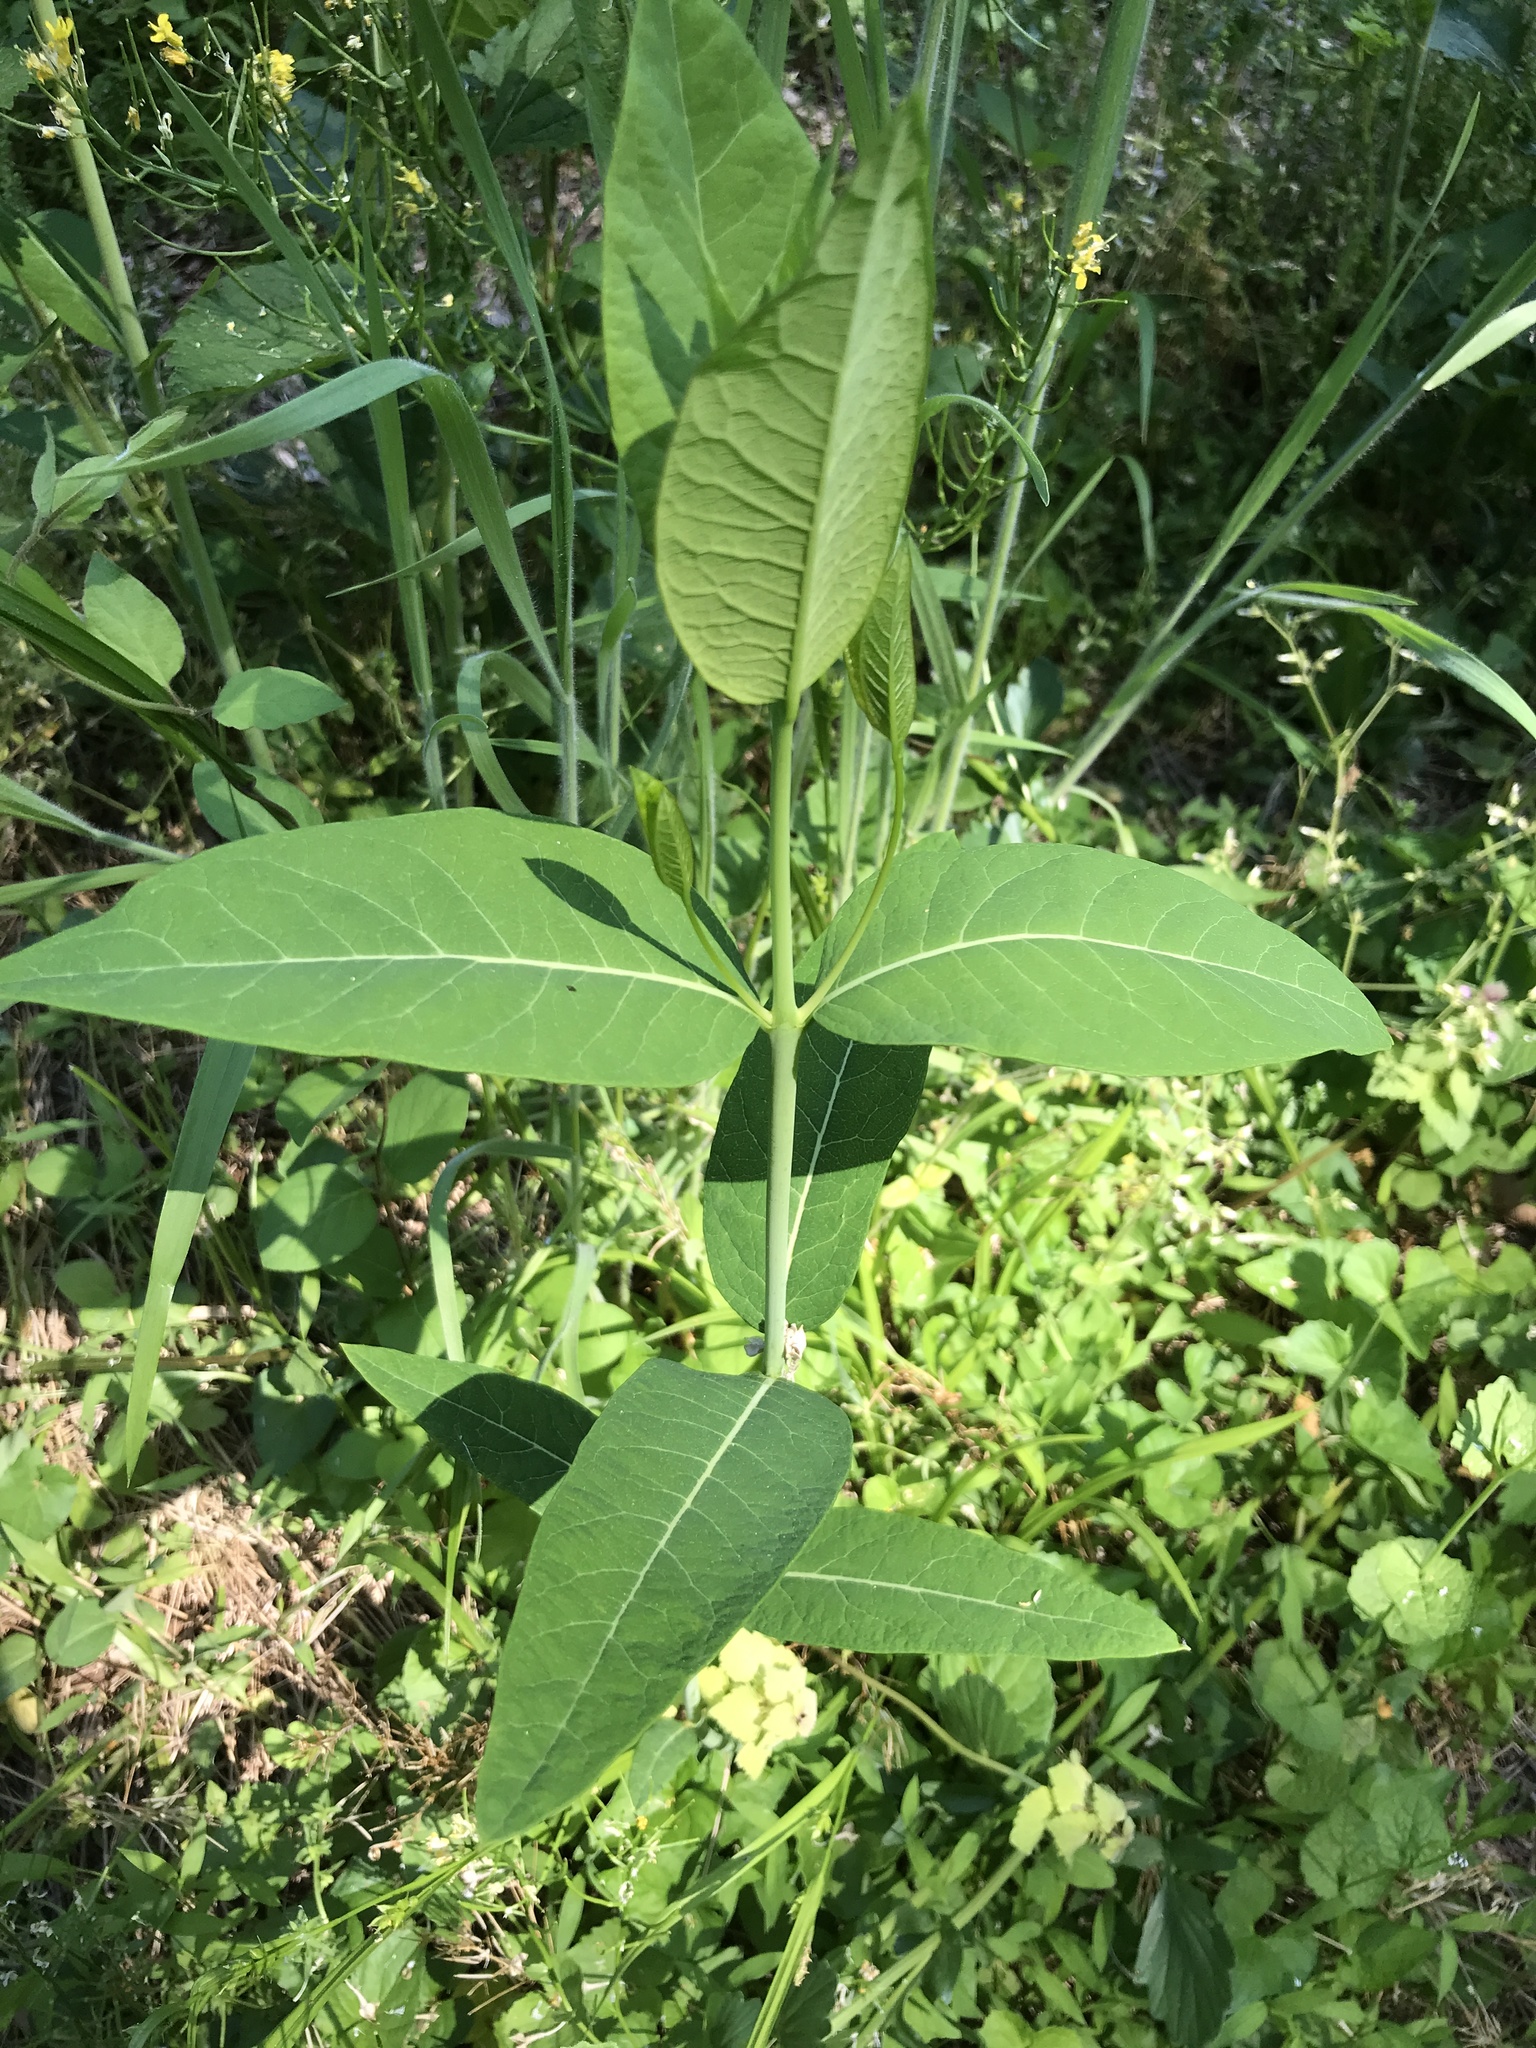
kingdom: Plantae
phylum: Tracheophyta
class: Magnoliopsida
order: Gentianales
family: Apocynaceae
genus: Apocynum
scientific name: Apocynum cannabinum
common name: Hemp dogbane
